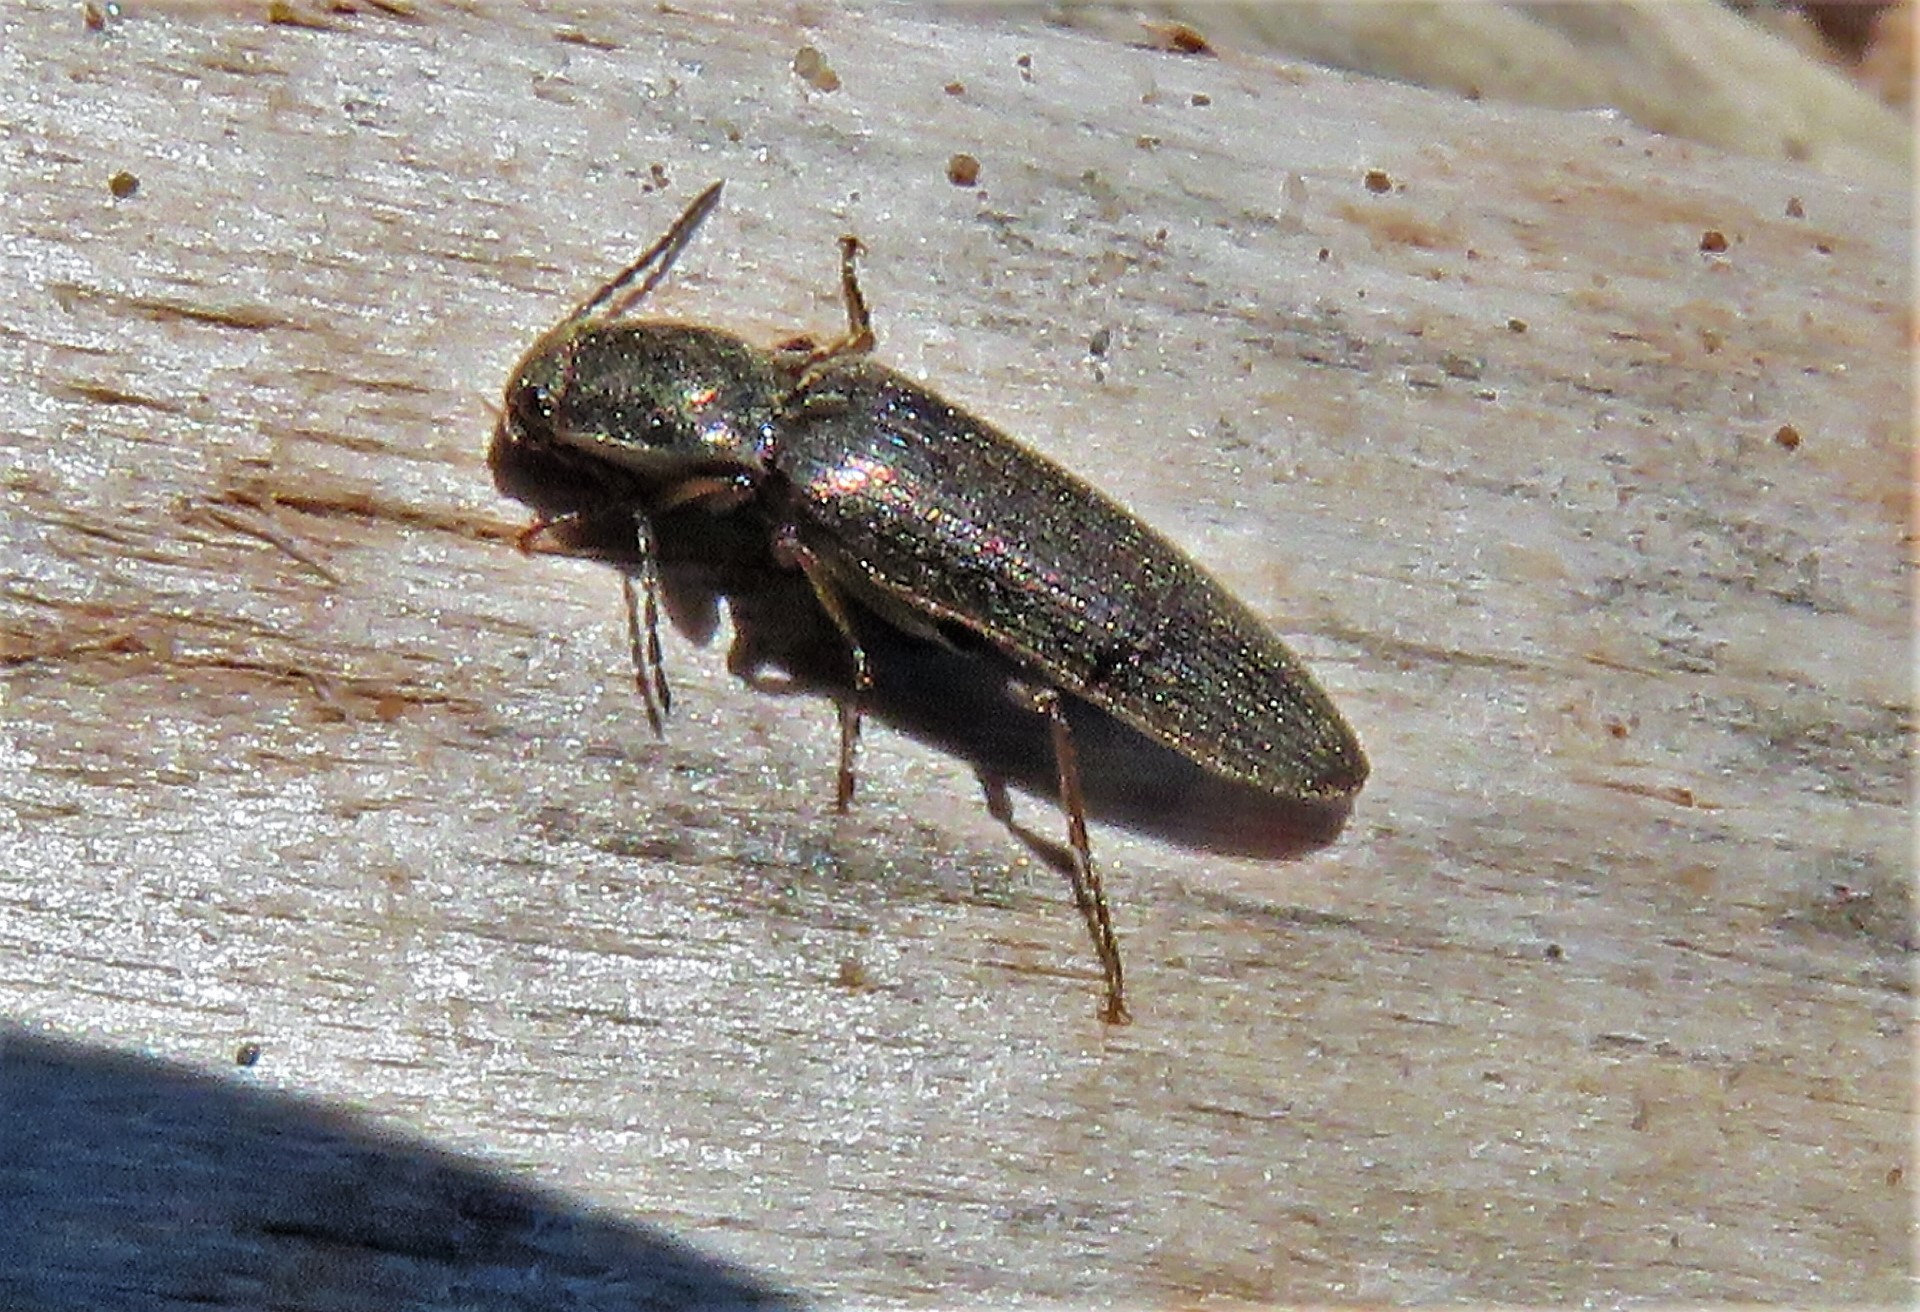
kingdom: Animalia
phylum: Arthropoda
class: Insecta
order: Coleoptera
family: Elateridae
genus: Sylvanelater
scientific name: Sylvanelater cylindriformis
